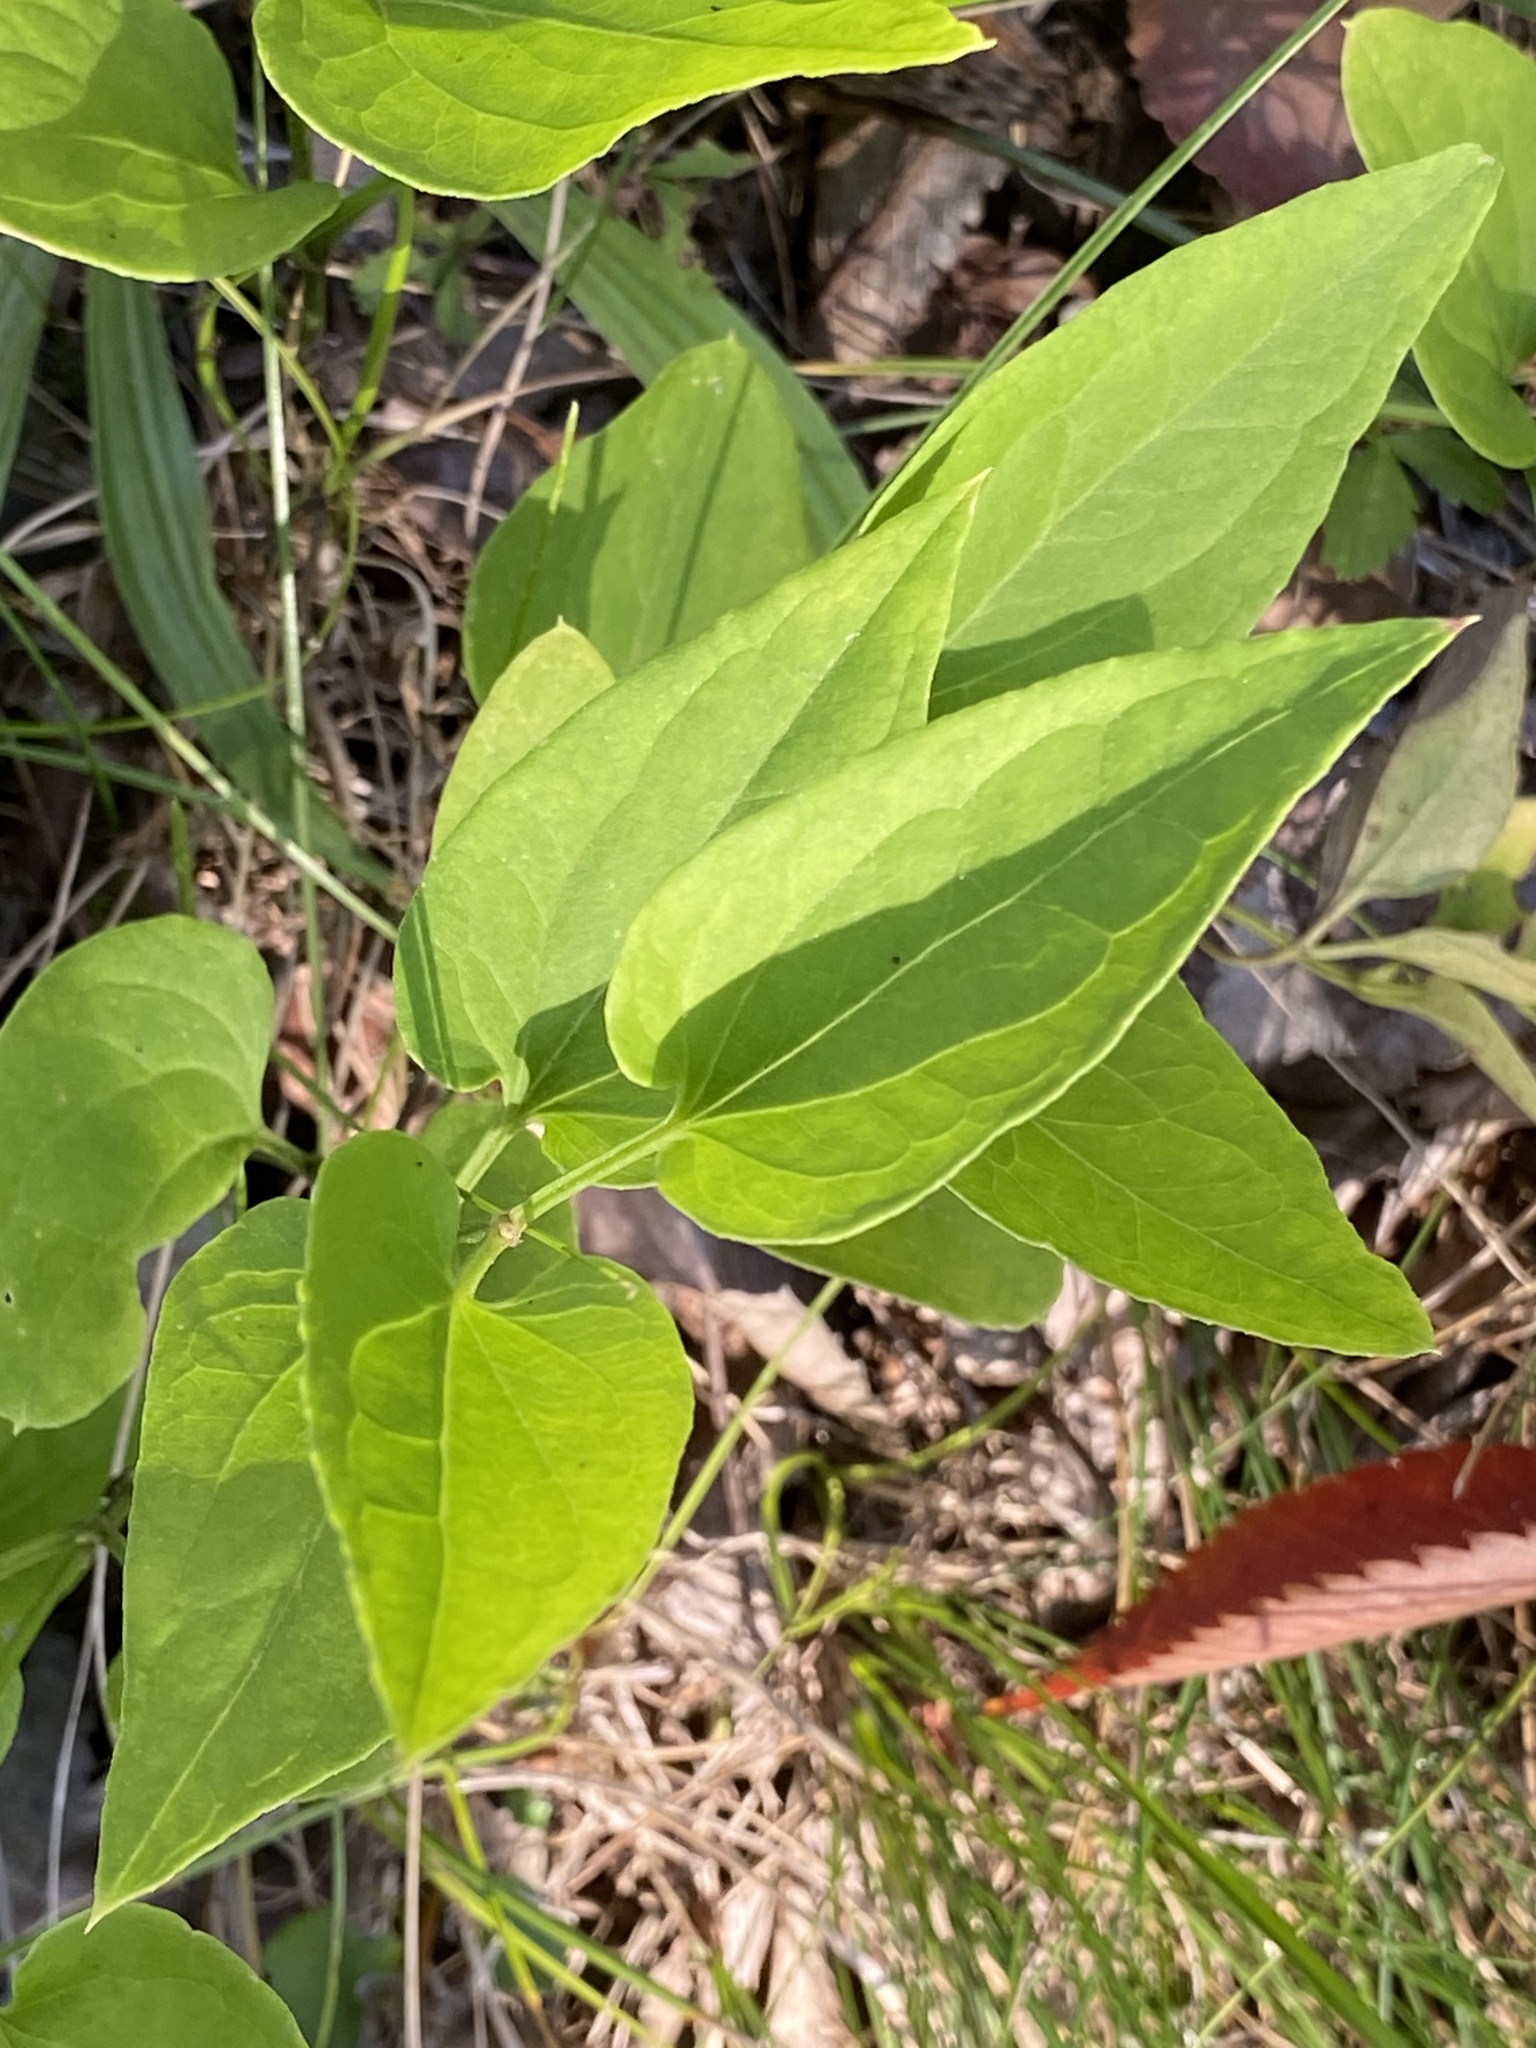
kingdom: Plantae
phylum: Tracheophyta
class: Magnoliopsida
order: Ranunculales
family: Ranunculaceae
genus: Clematis
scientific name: Clematis terniflora
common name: Sweet autumn clematis
